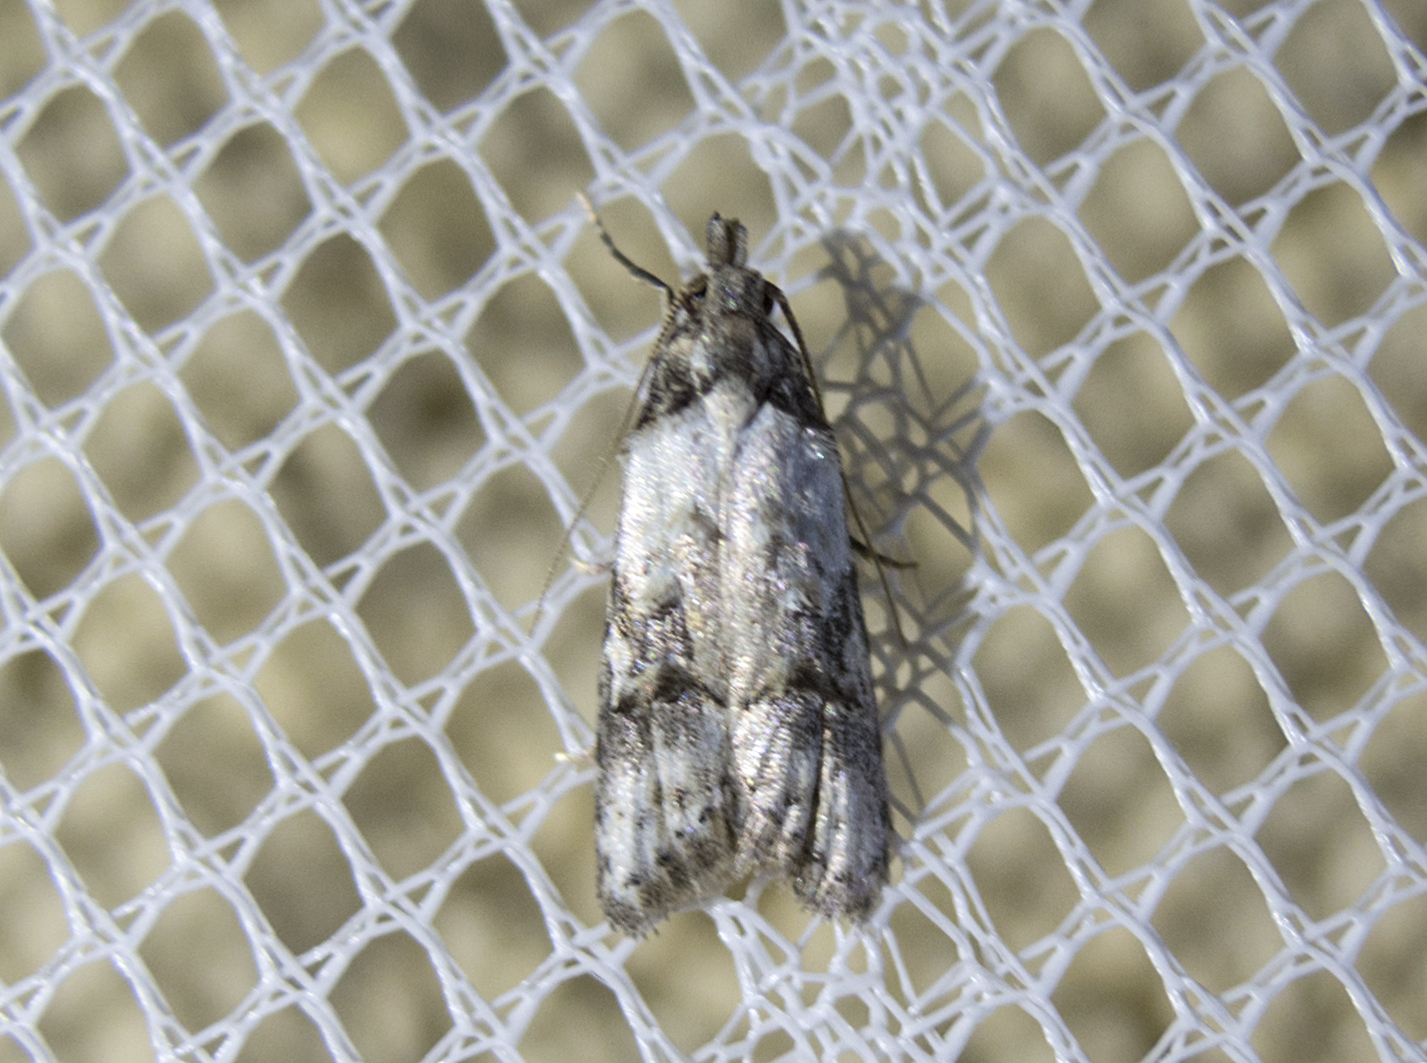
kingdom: Animalia
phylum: Arthropoda
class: Insecta
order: Lepidoptera
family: Carposinidae
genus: Carposina
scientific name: Carposina scirrhosella
